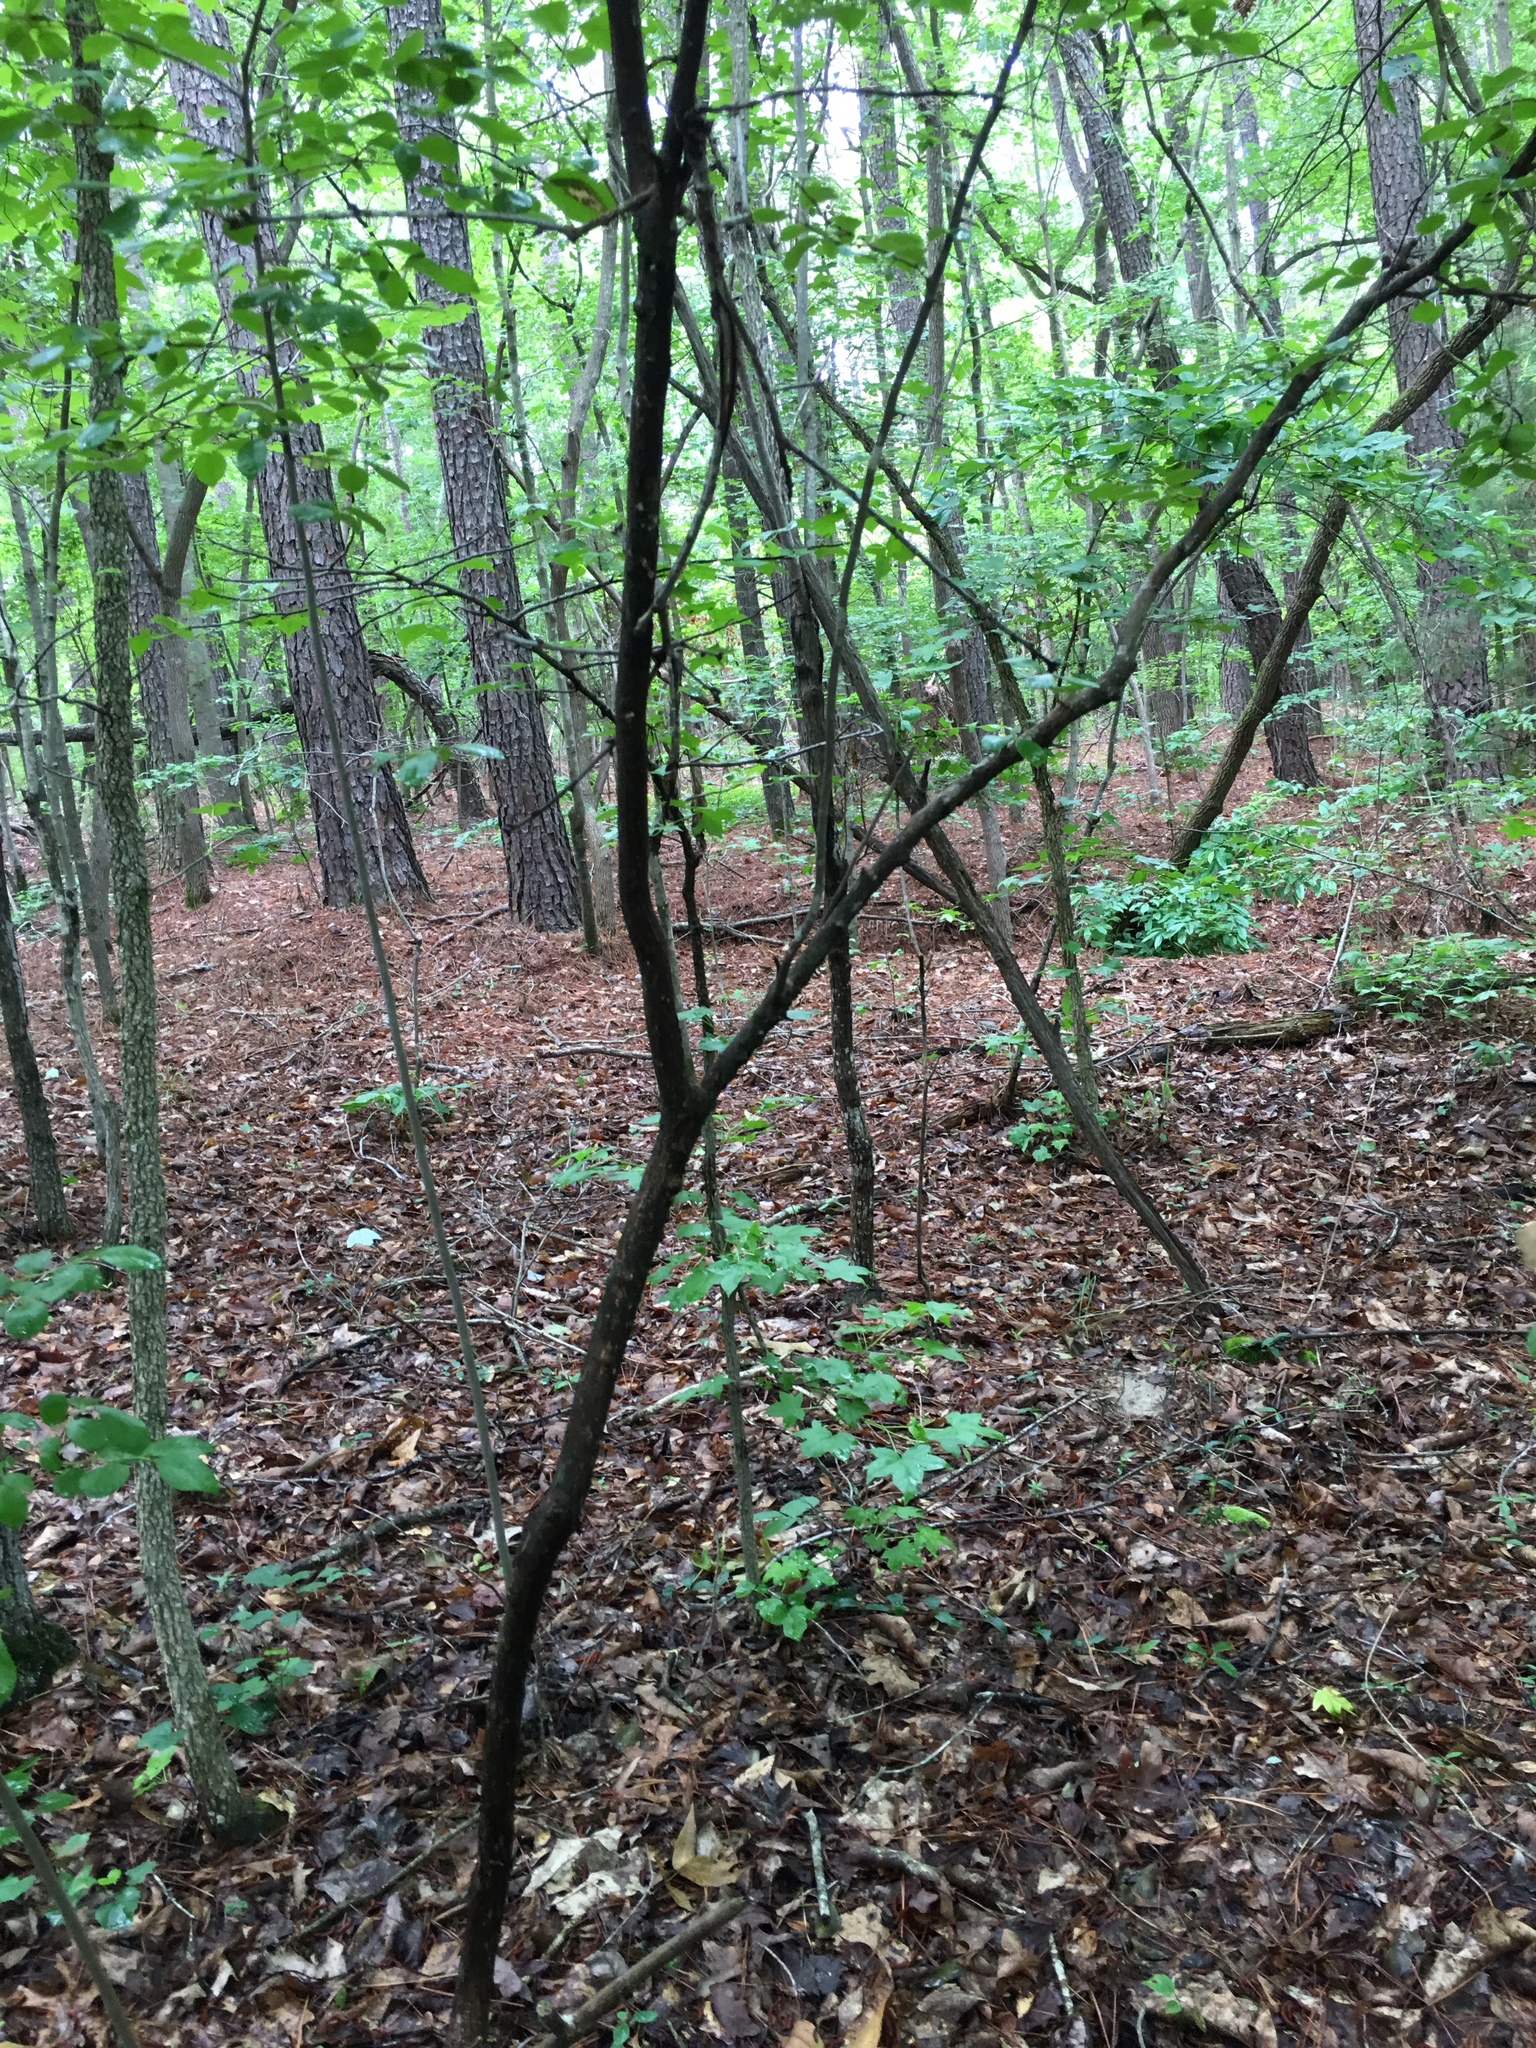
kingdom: Plantae
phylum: Tracheophyta
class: Magnoliopsida
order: Ericales
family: Ericaceae
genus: Vaccinium
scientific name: Vaccinium arboreum
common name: Farkleberry
